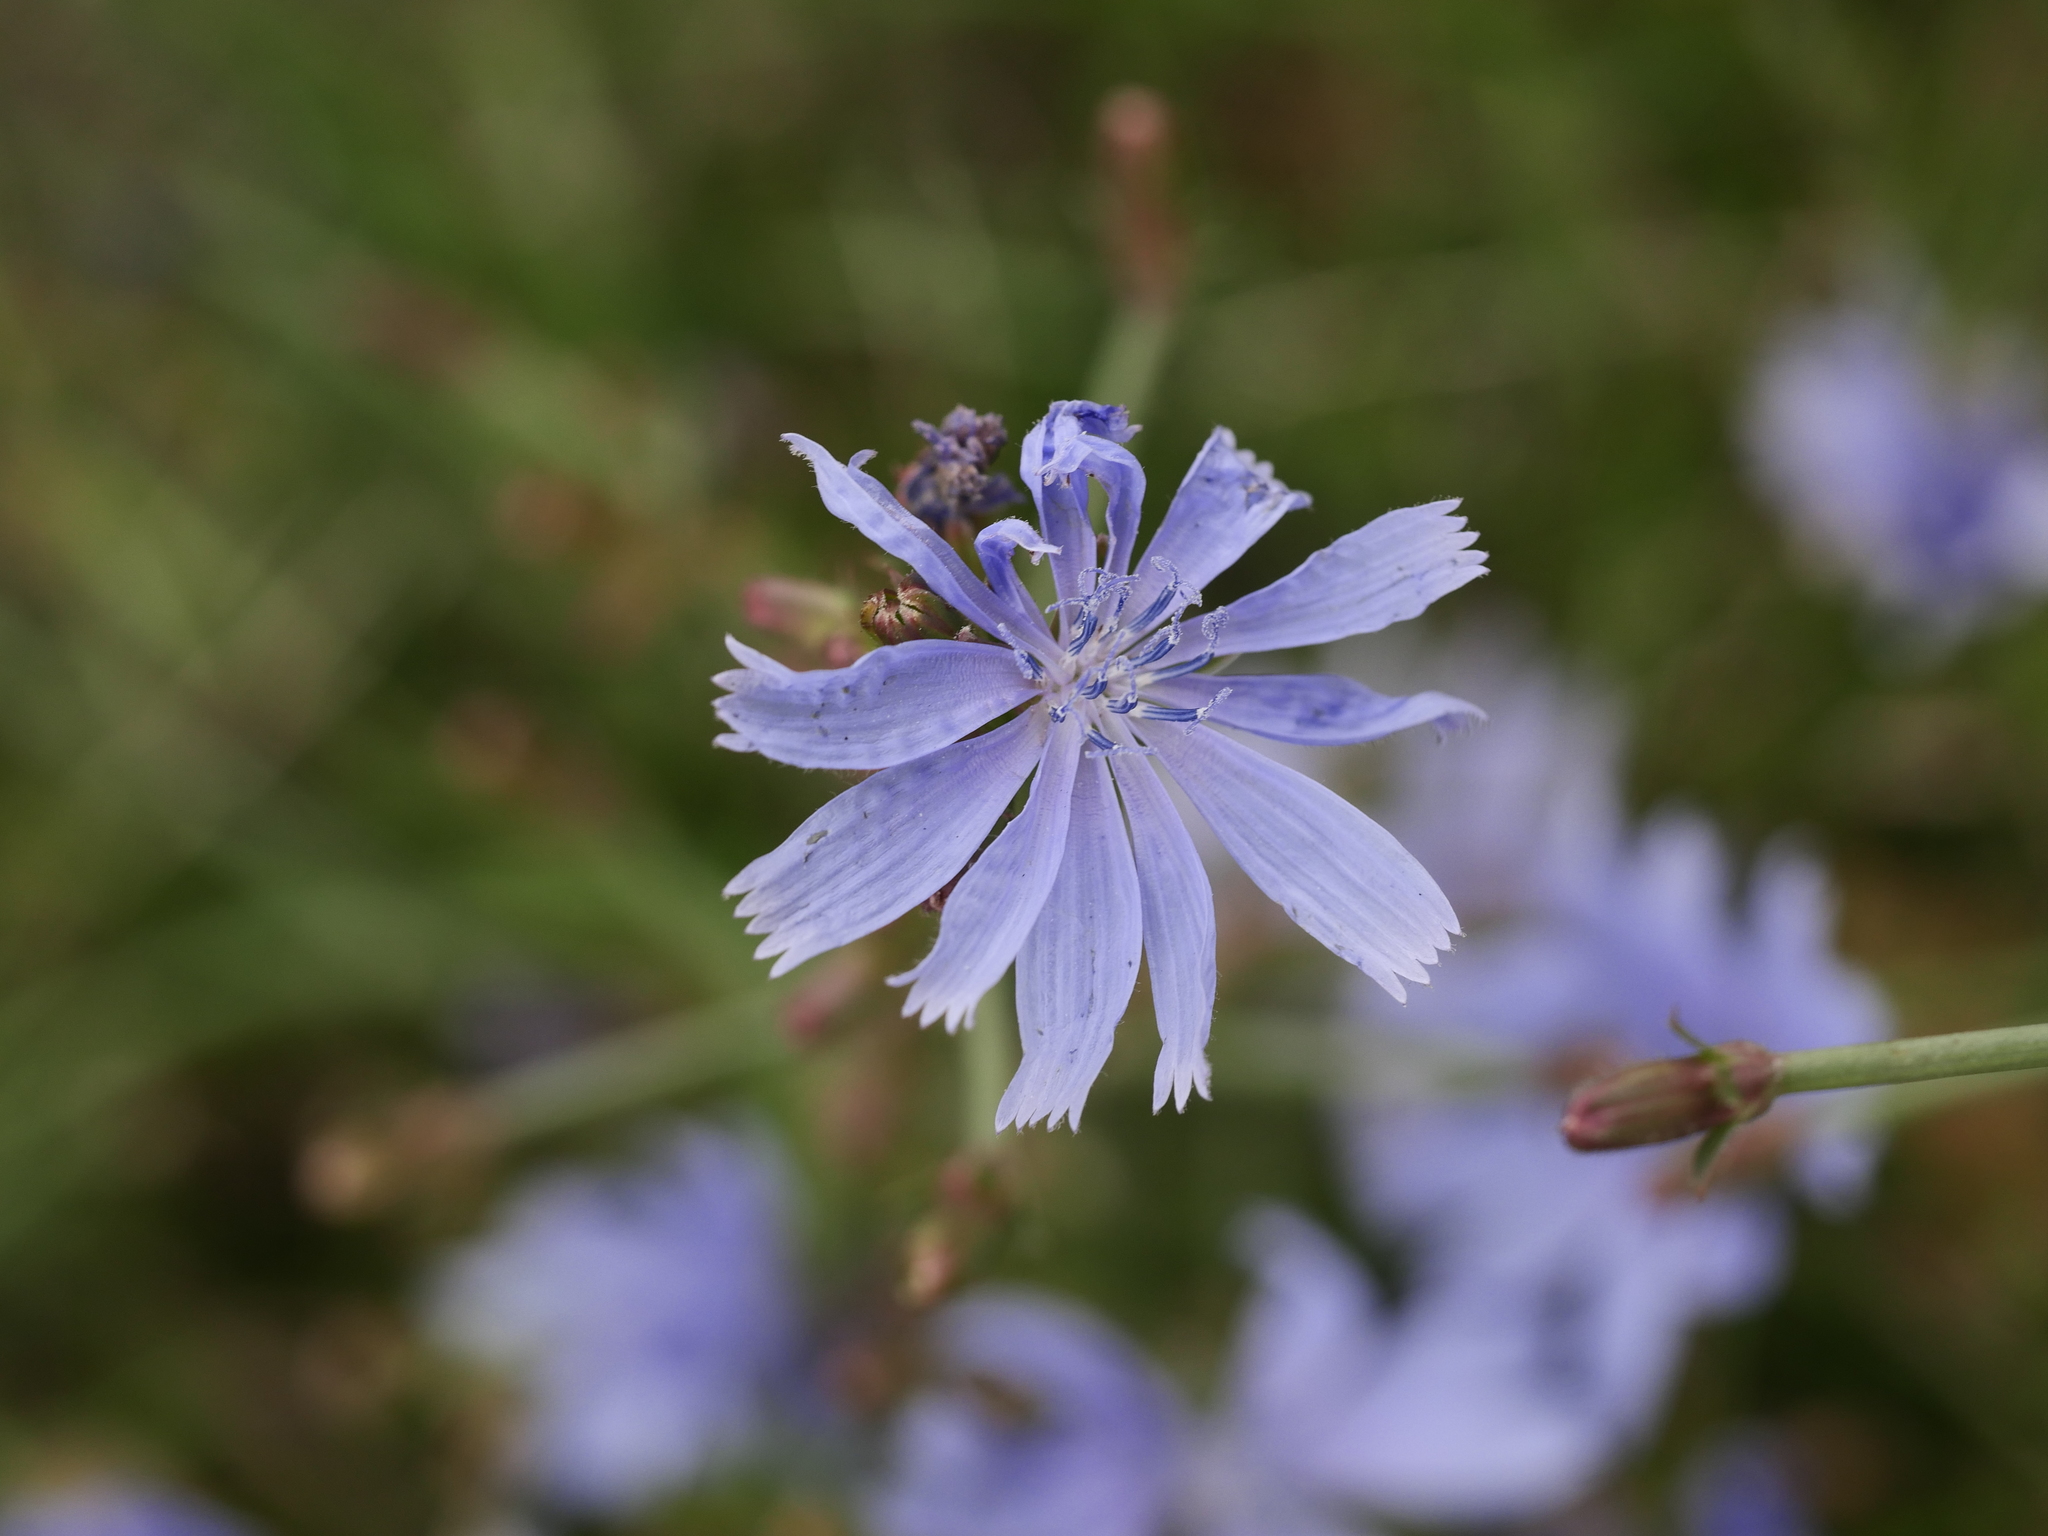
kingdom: Plantae
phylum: Tracheophyta
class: Magnoliopsida
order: Asterales
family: Asteraceae
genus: Cichorium
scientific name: Cichorium intybus
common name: Chicory
